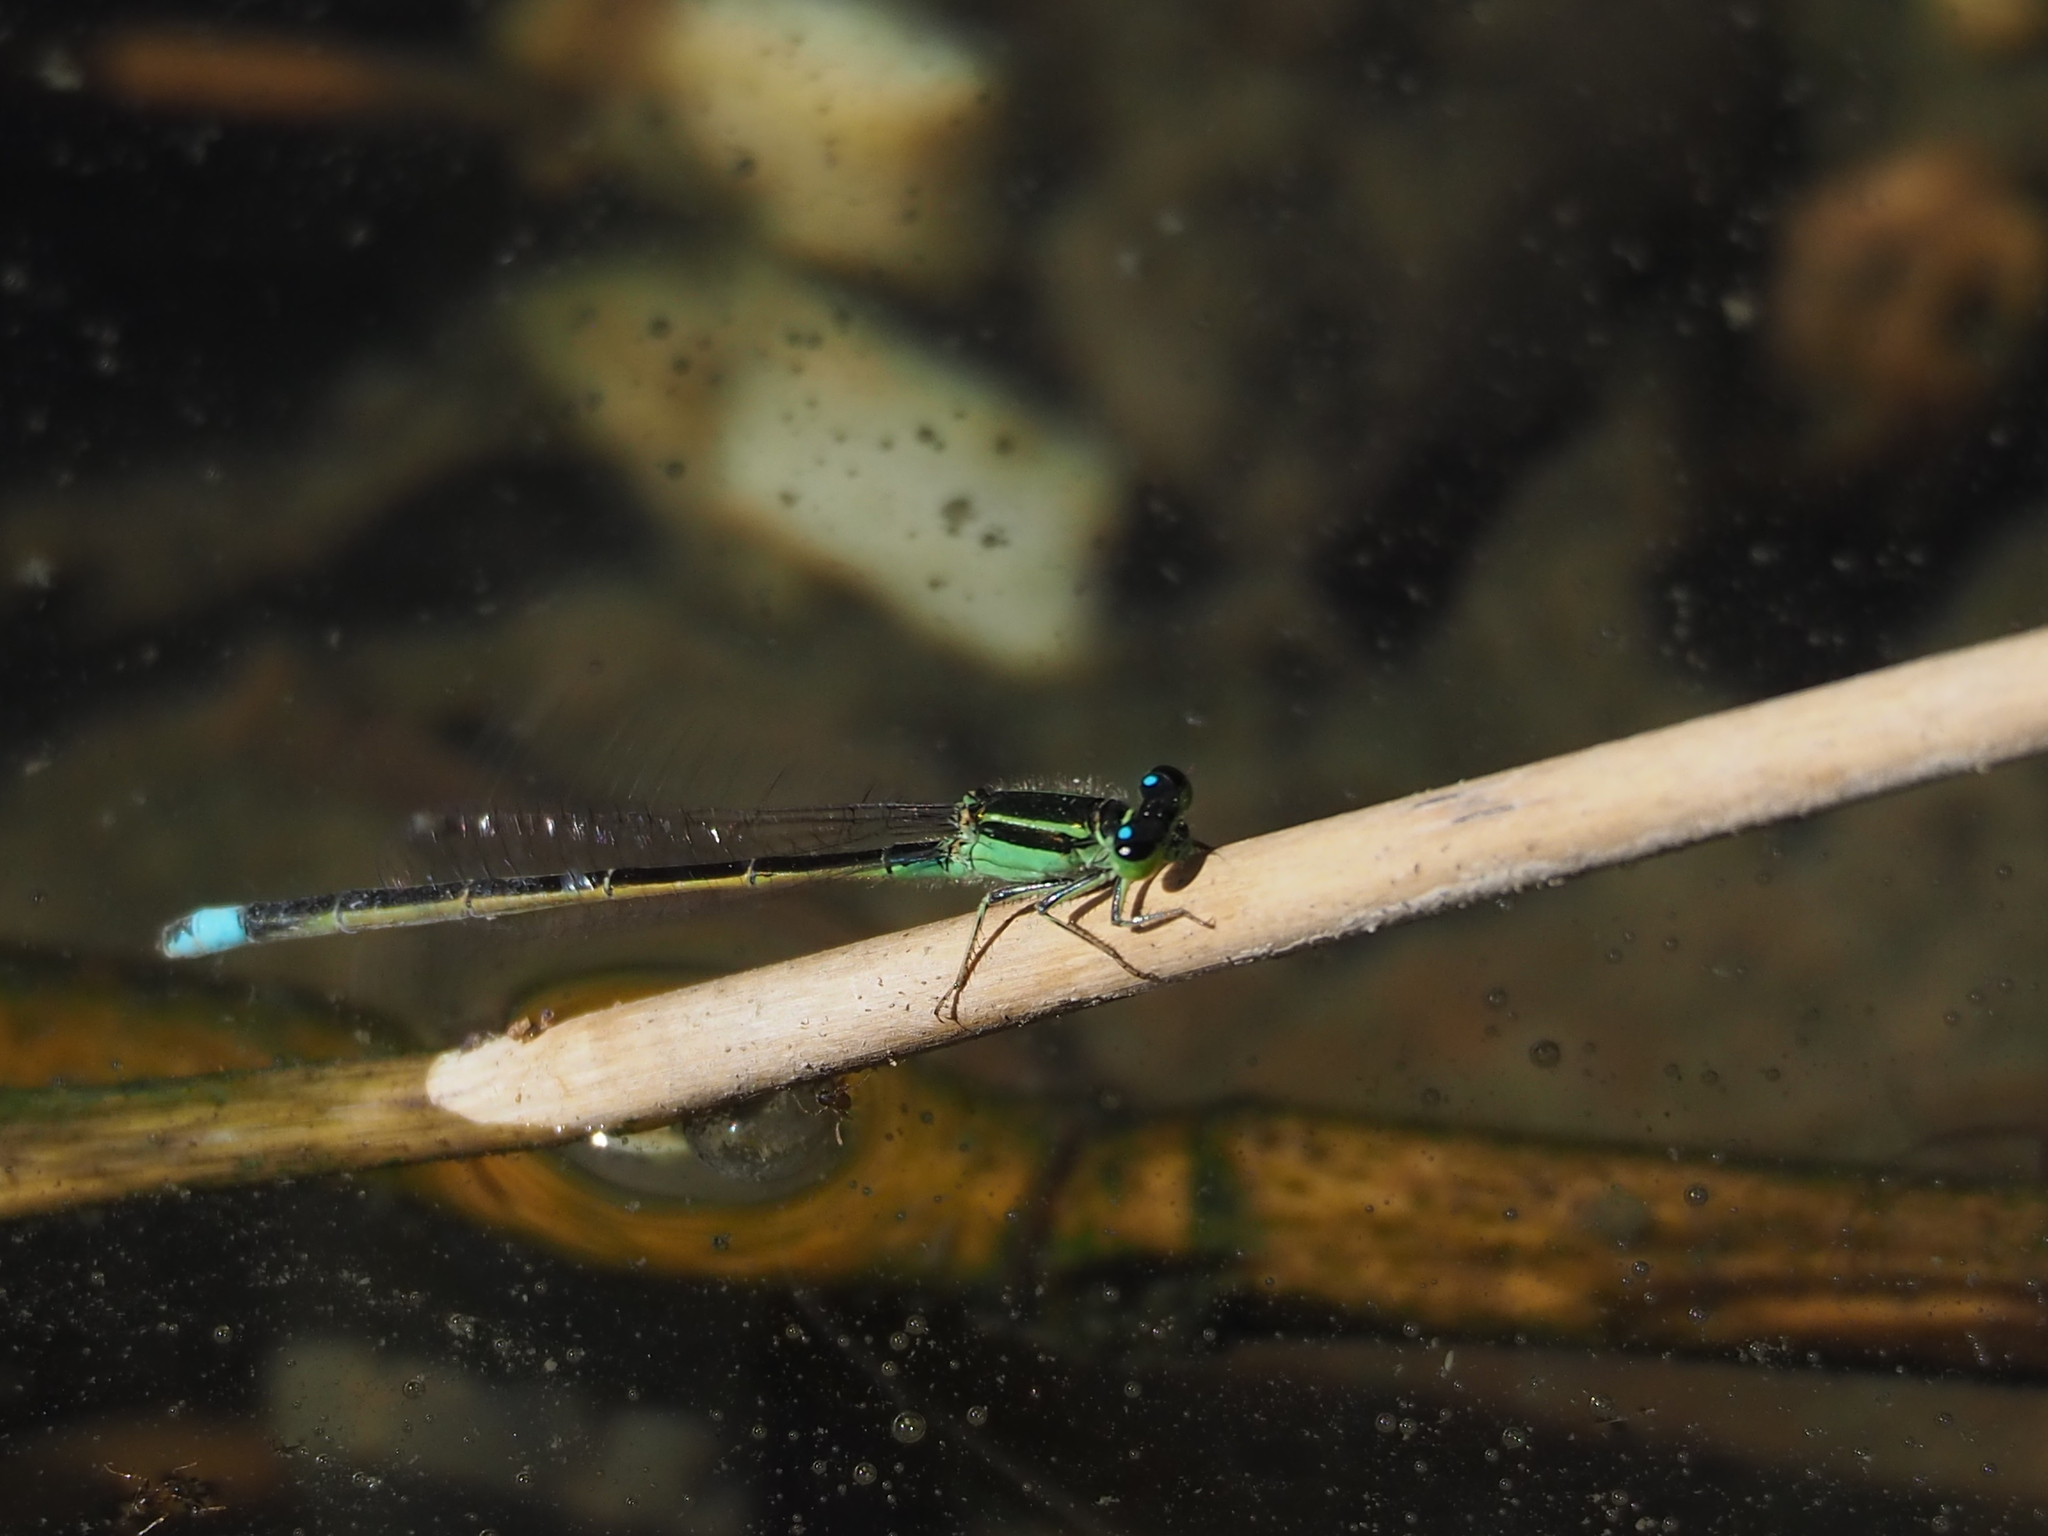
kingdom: Animalia
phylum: Arthropoda
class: Insecta
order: Odonata
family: Coenagrionidae
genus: Ischnura
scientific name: Ischnura senegalensis
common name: Tropical bluetail
